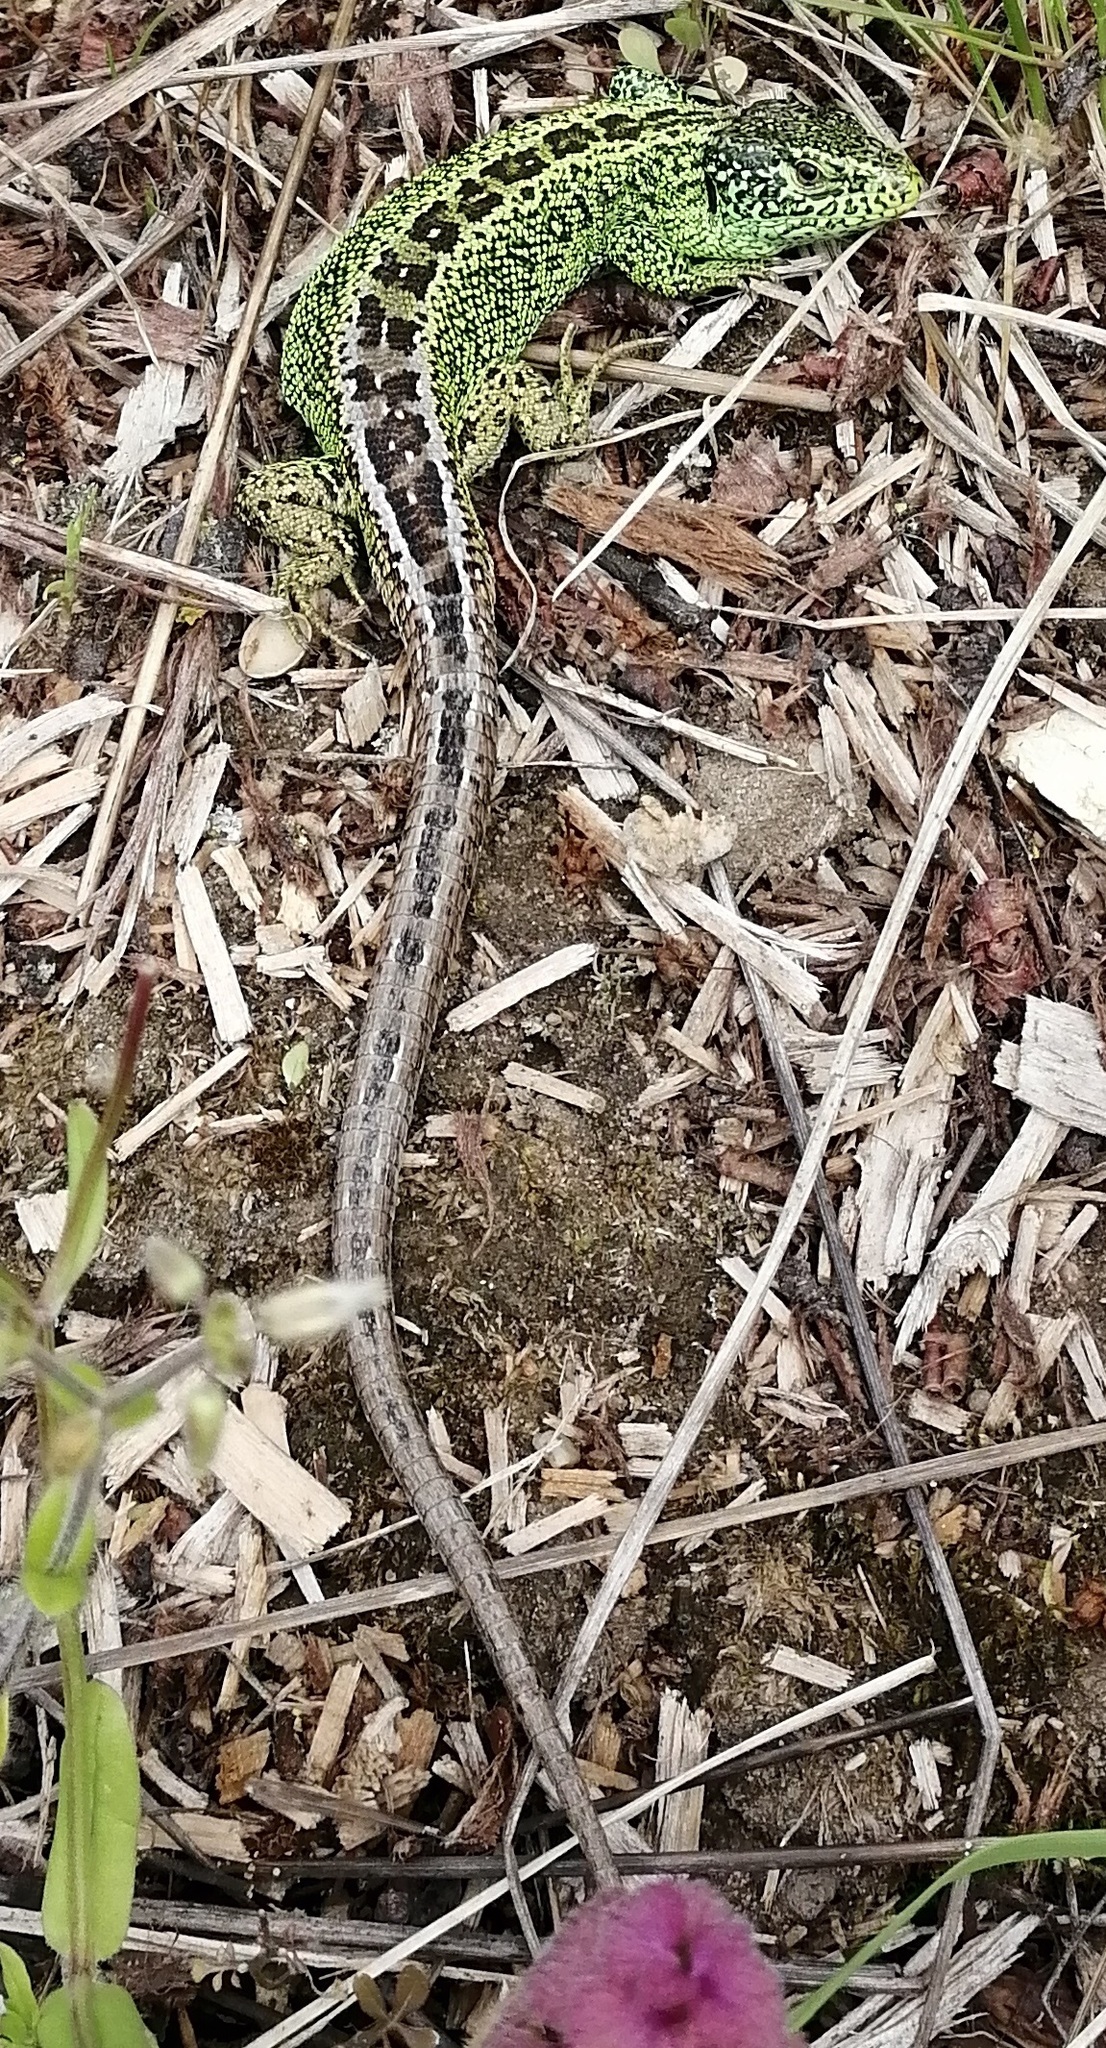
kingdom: Animalia
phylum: Chordata
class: Squamata
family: Lacertidae
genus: Lacerta
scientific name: Lacerta agilis
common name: Sand lizard
